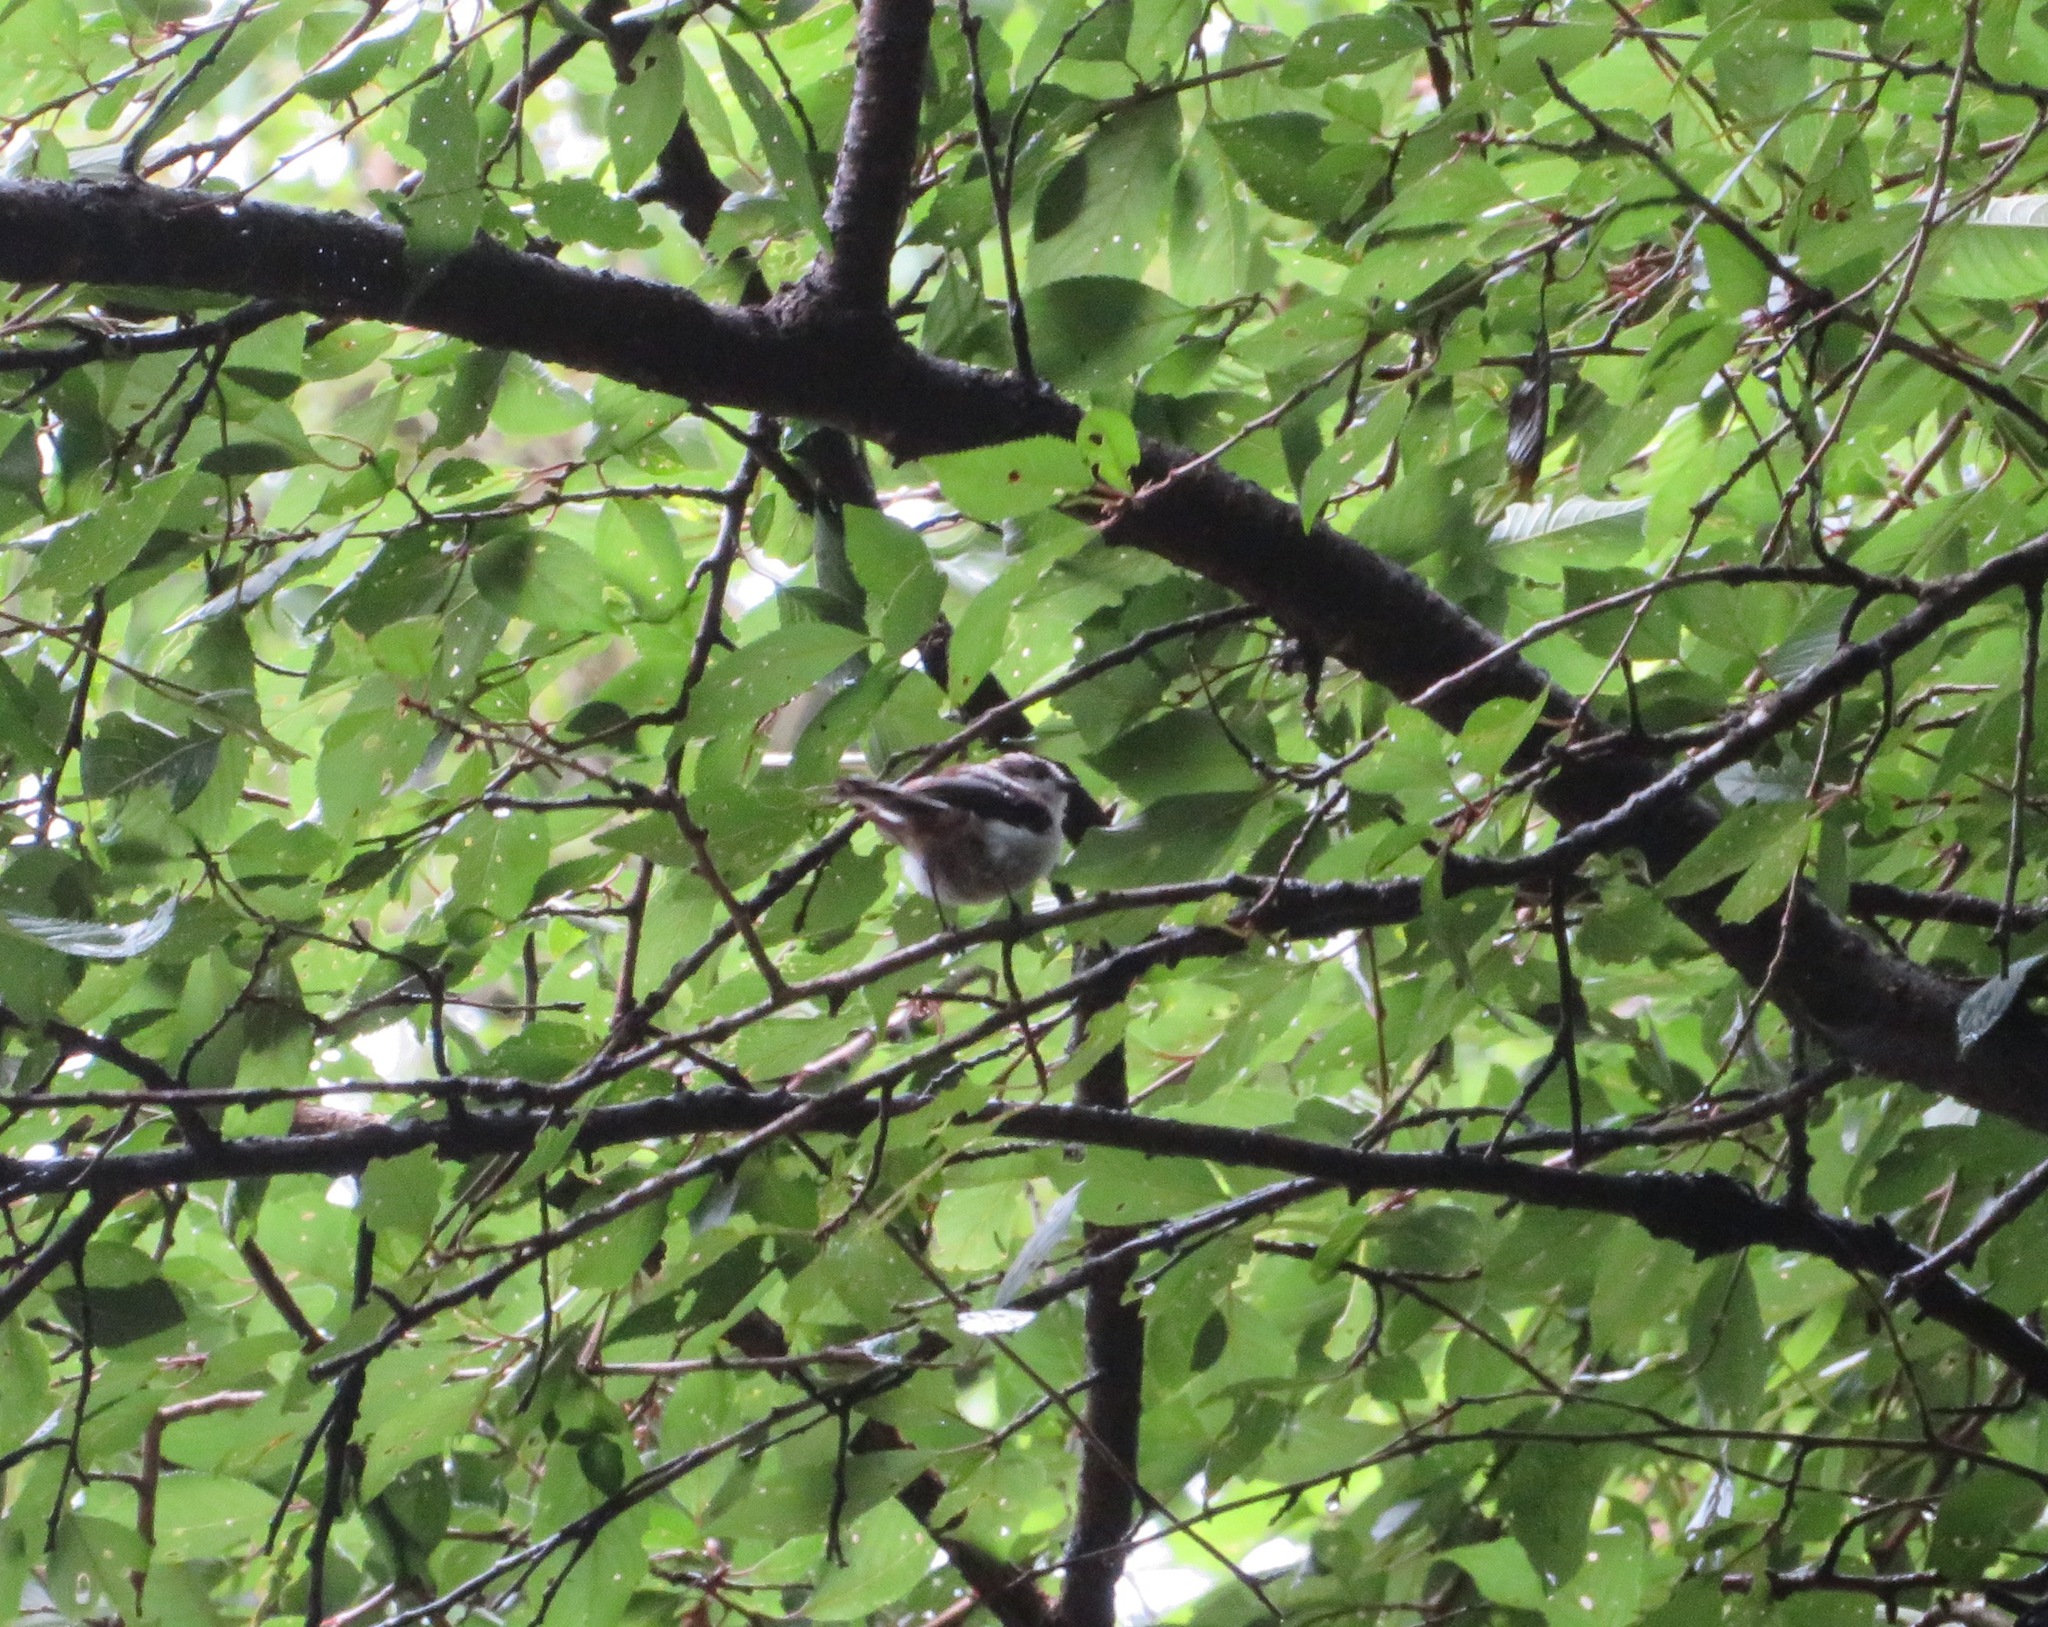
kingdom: Animalia
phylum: Chordata
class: Aves
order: Passeriformes
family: Aegithalidae
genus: Aegithalos
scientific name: Aegithalos caudatus
